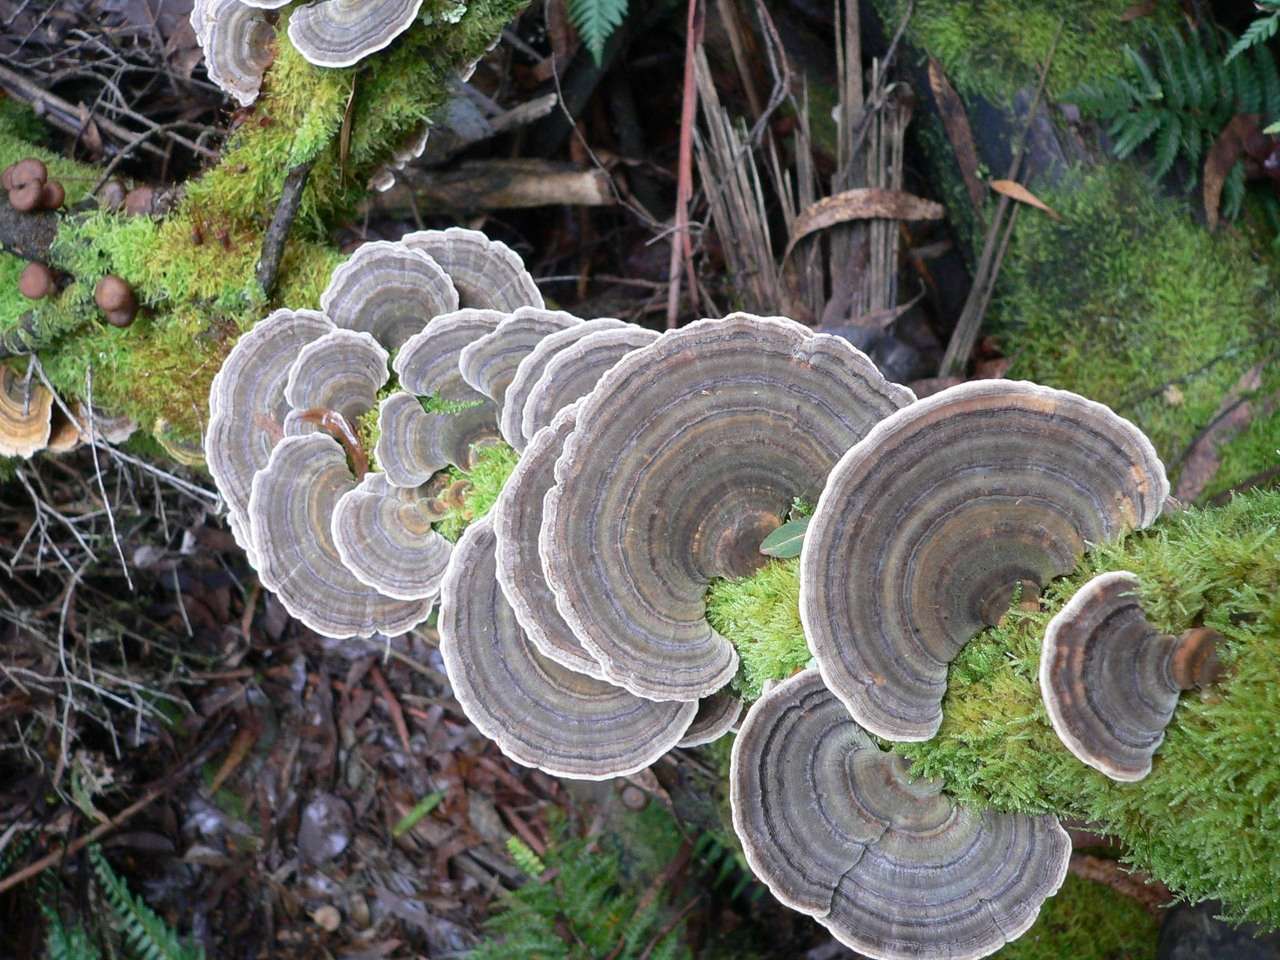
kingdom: Fungi
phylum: Basidiomycota
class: Agaricomycetes
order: Polyporales
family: Polyporaceae
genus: Trametes
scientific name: Trametes versicolor
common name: Turkeytail
